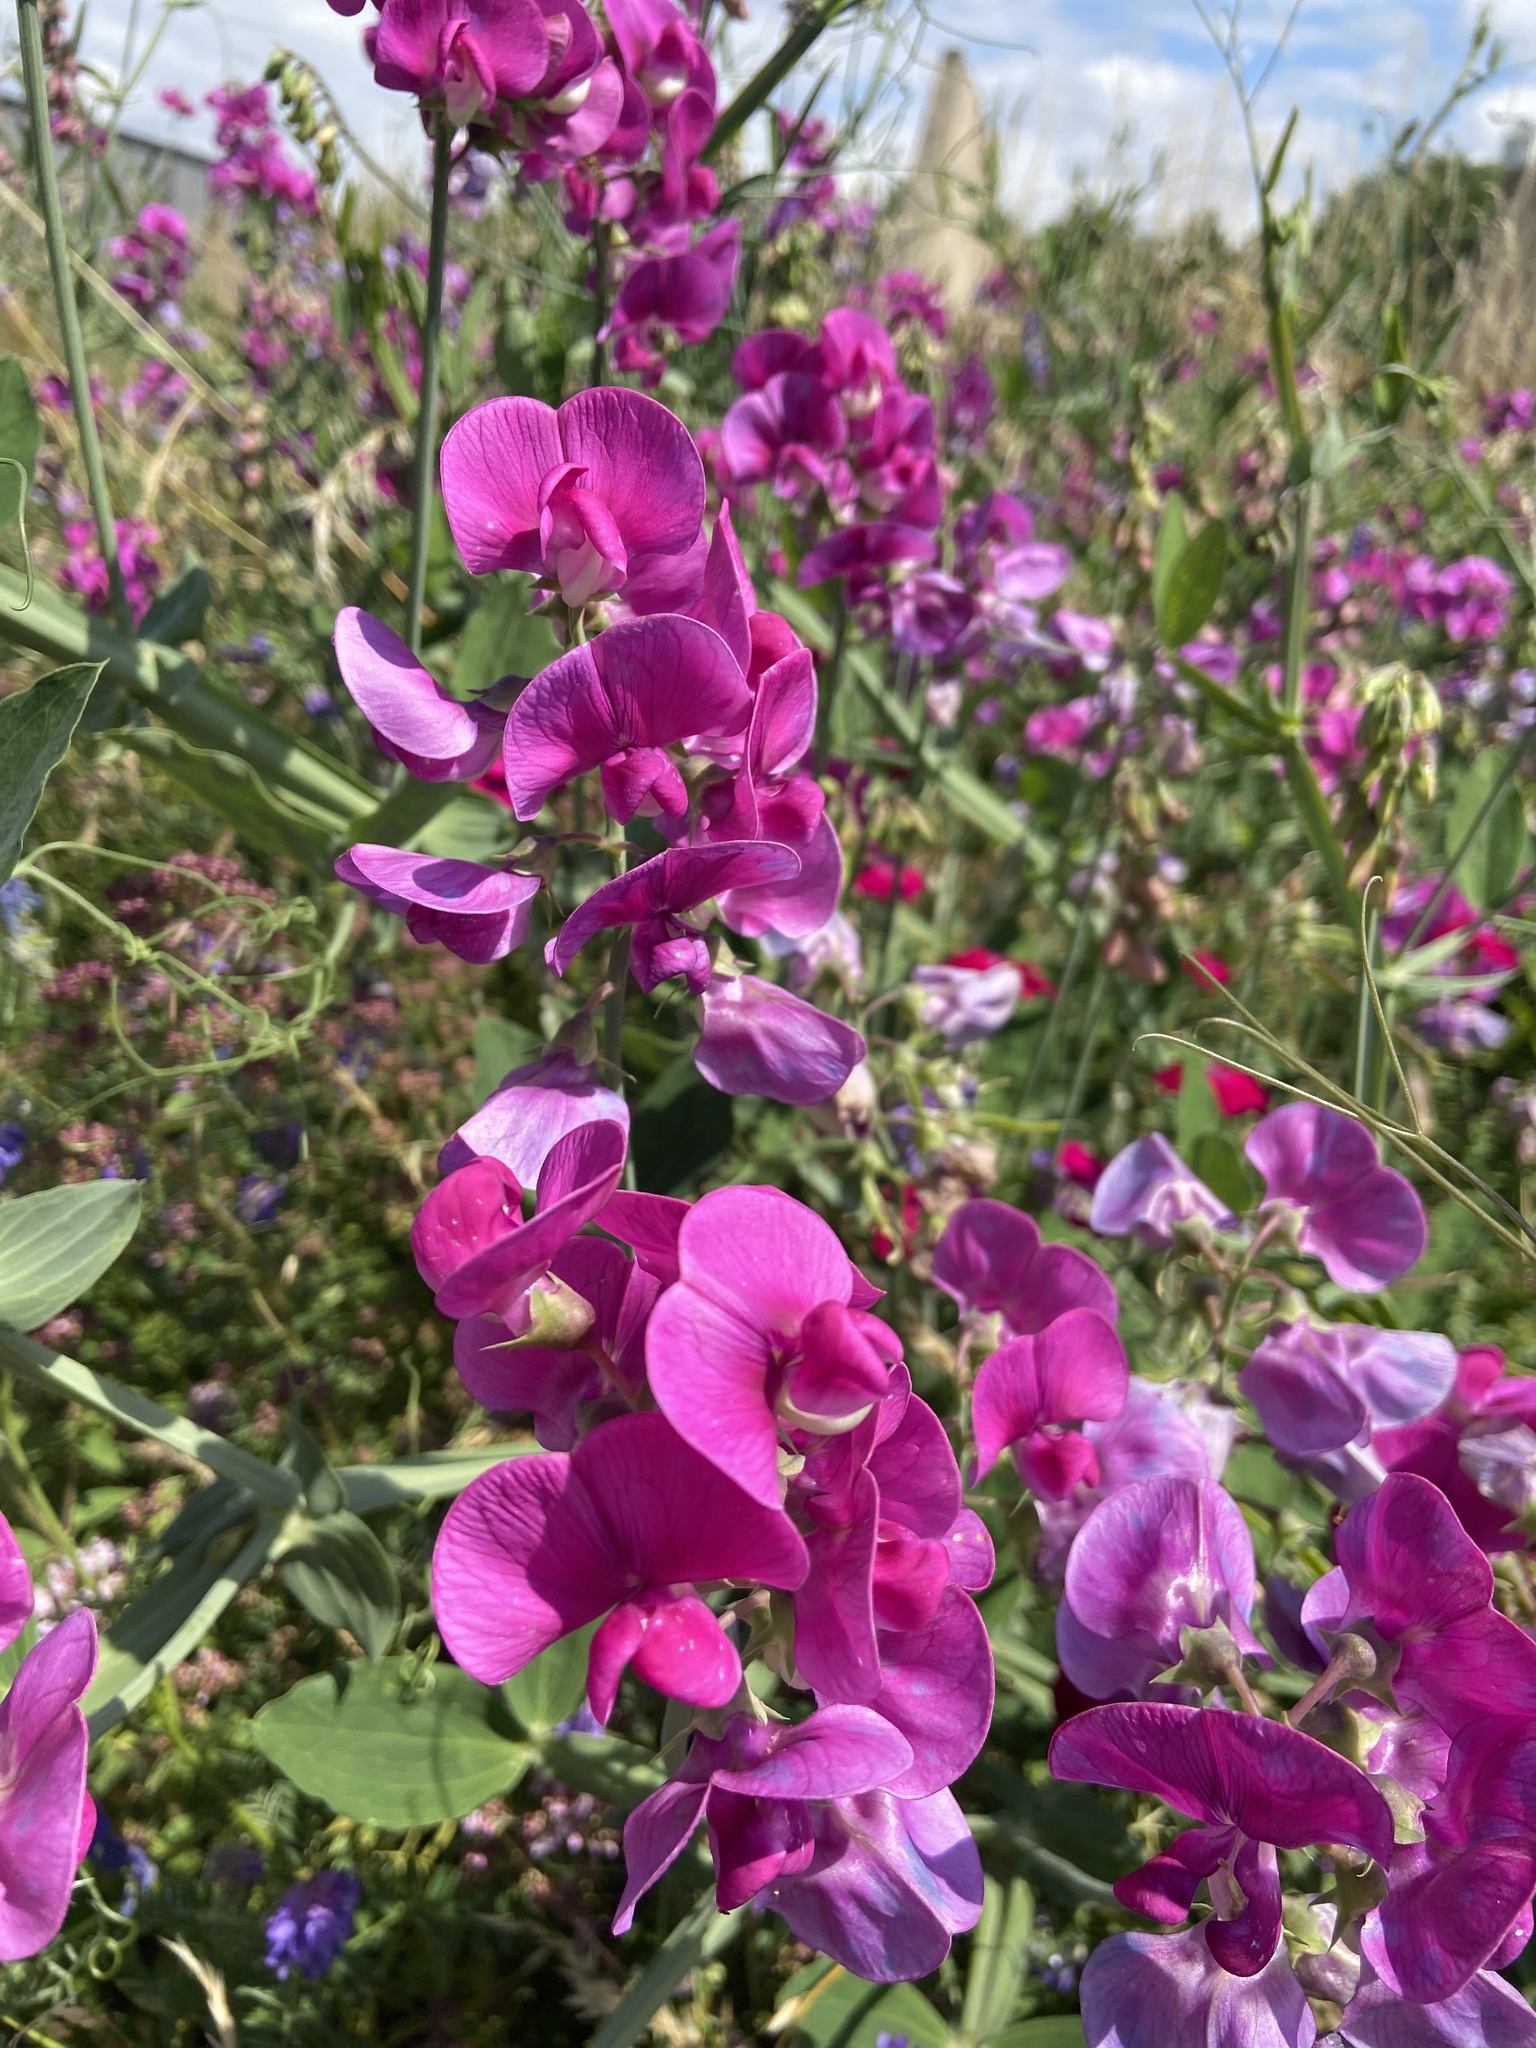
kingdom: Plantae
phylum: Tracheophyta
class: Magnoliopsida
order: Fabales
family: Fabaceae
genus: Lathyrus
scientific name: Lathyrus latifolius
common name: Perennial pea
